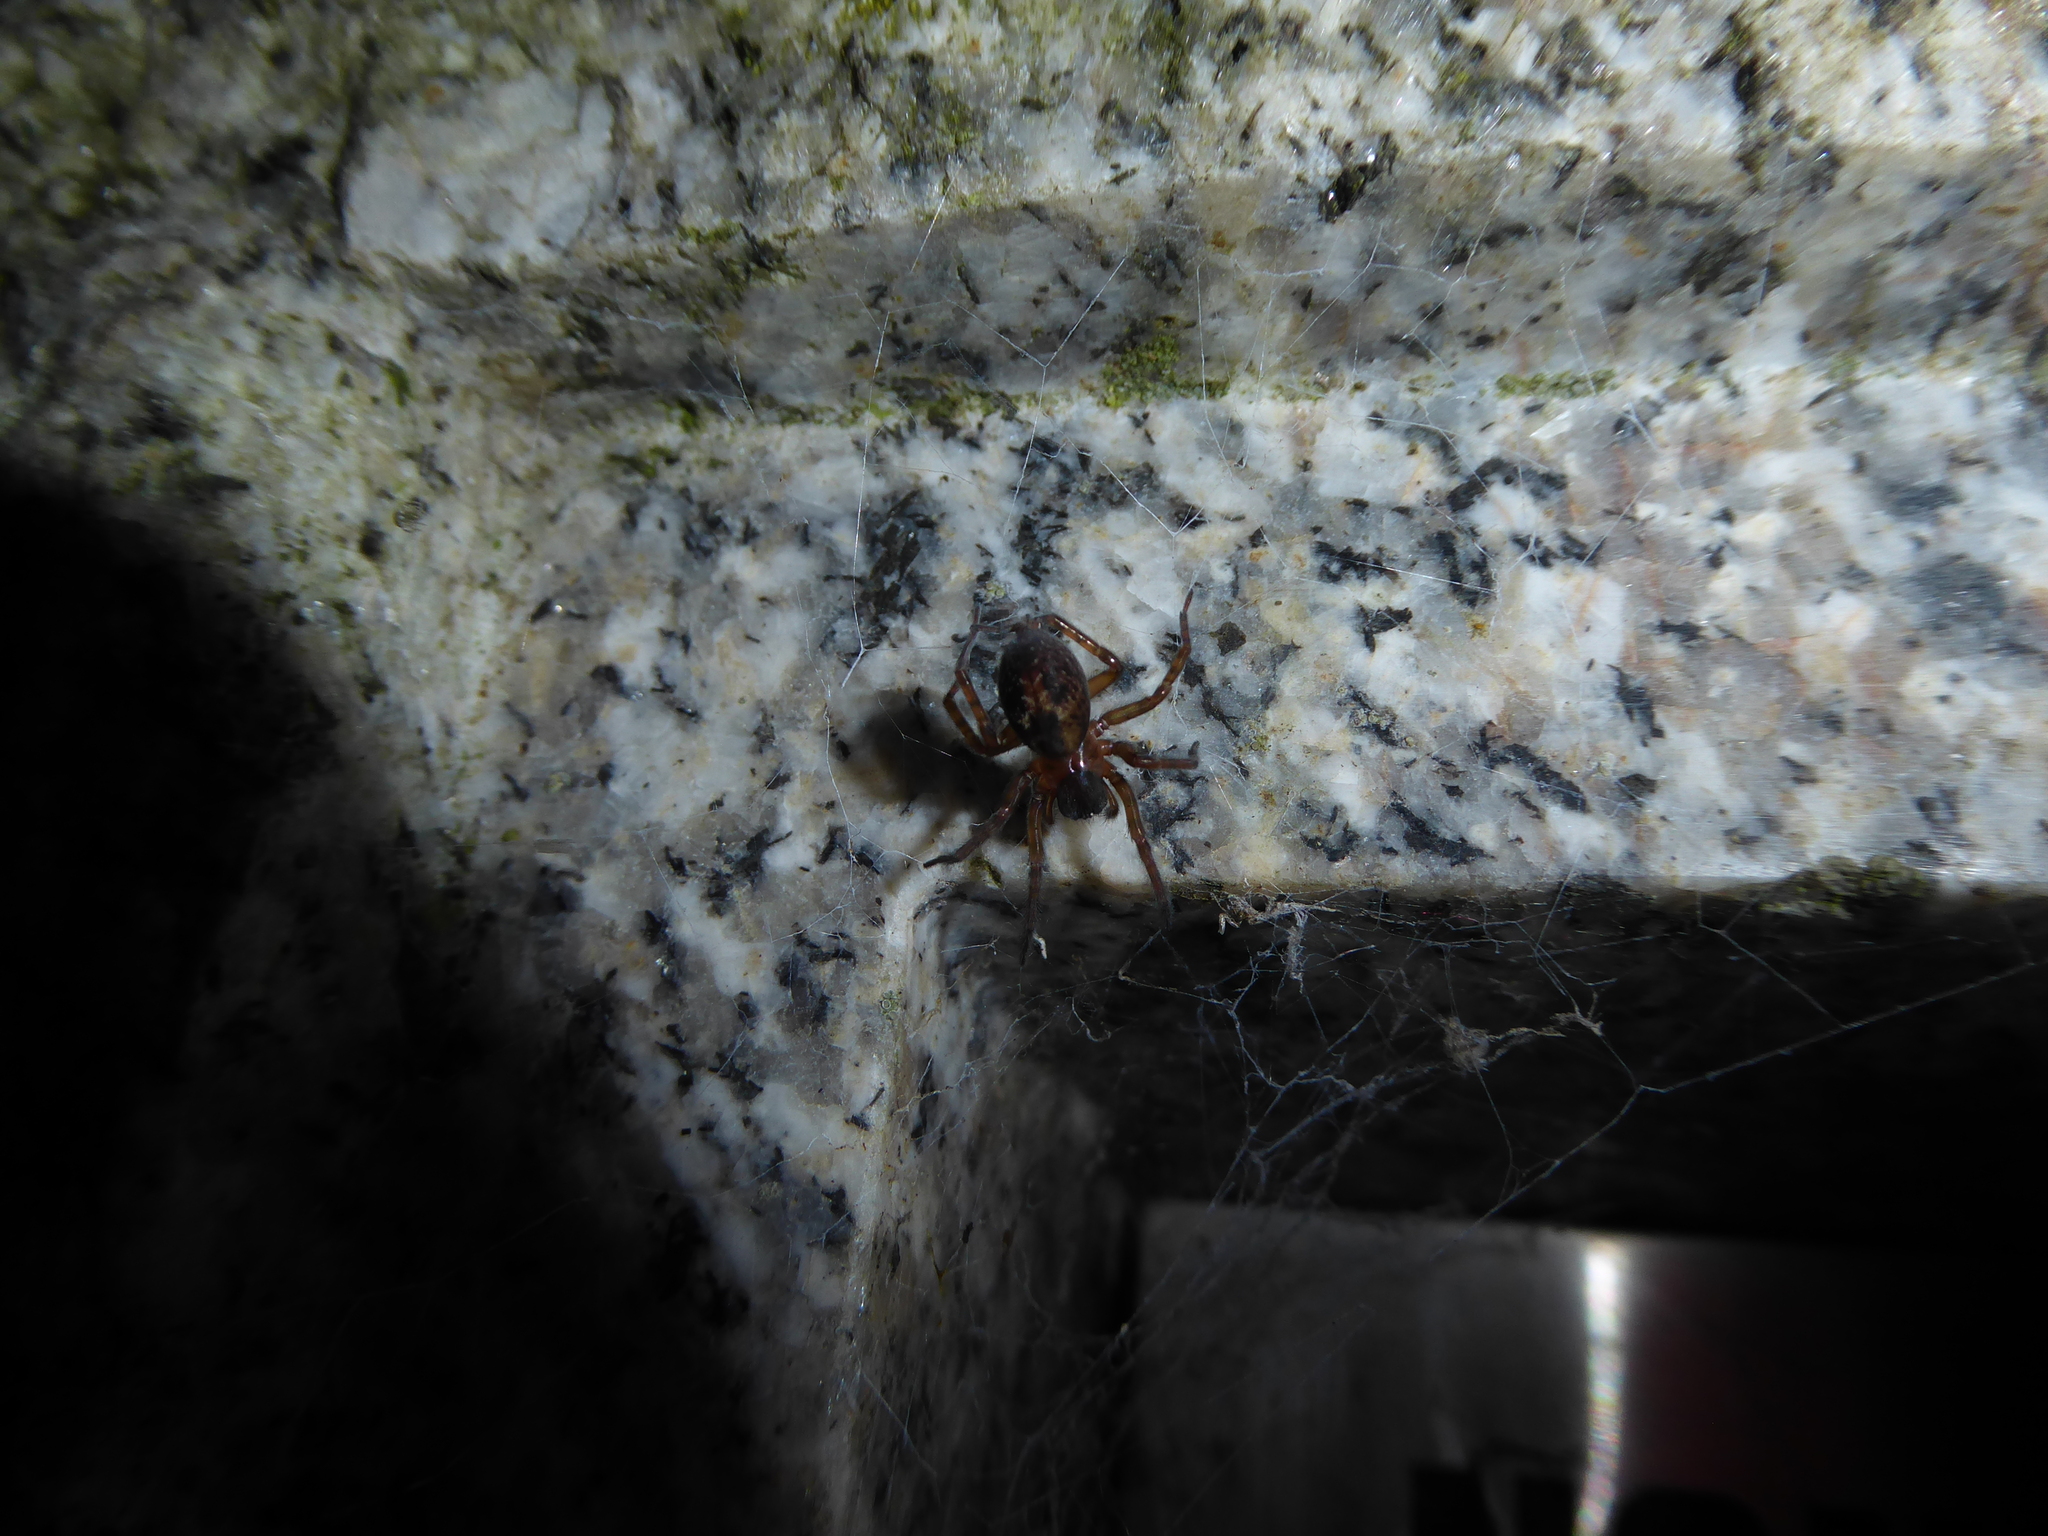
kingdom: Animalia
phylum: Arthropoda
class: Arachnida
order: Araneae
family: Amaurobiidae
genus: Amaurobius
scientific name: Amaurobius
